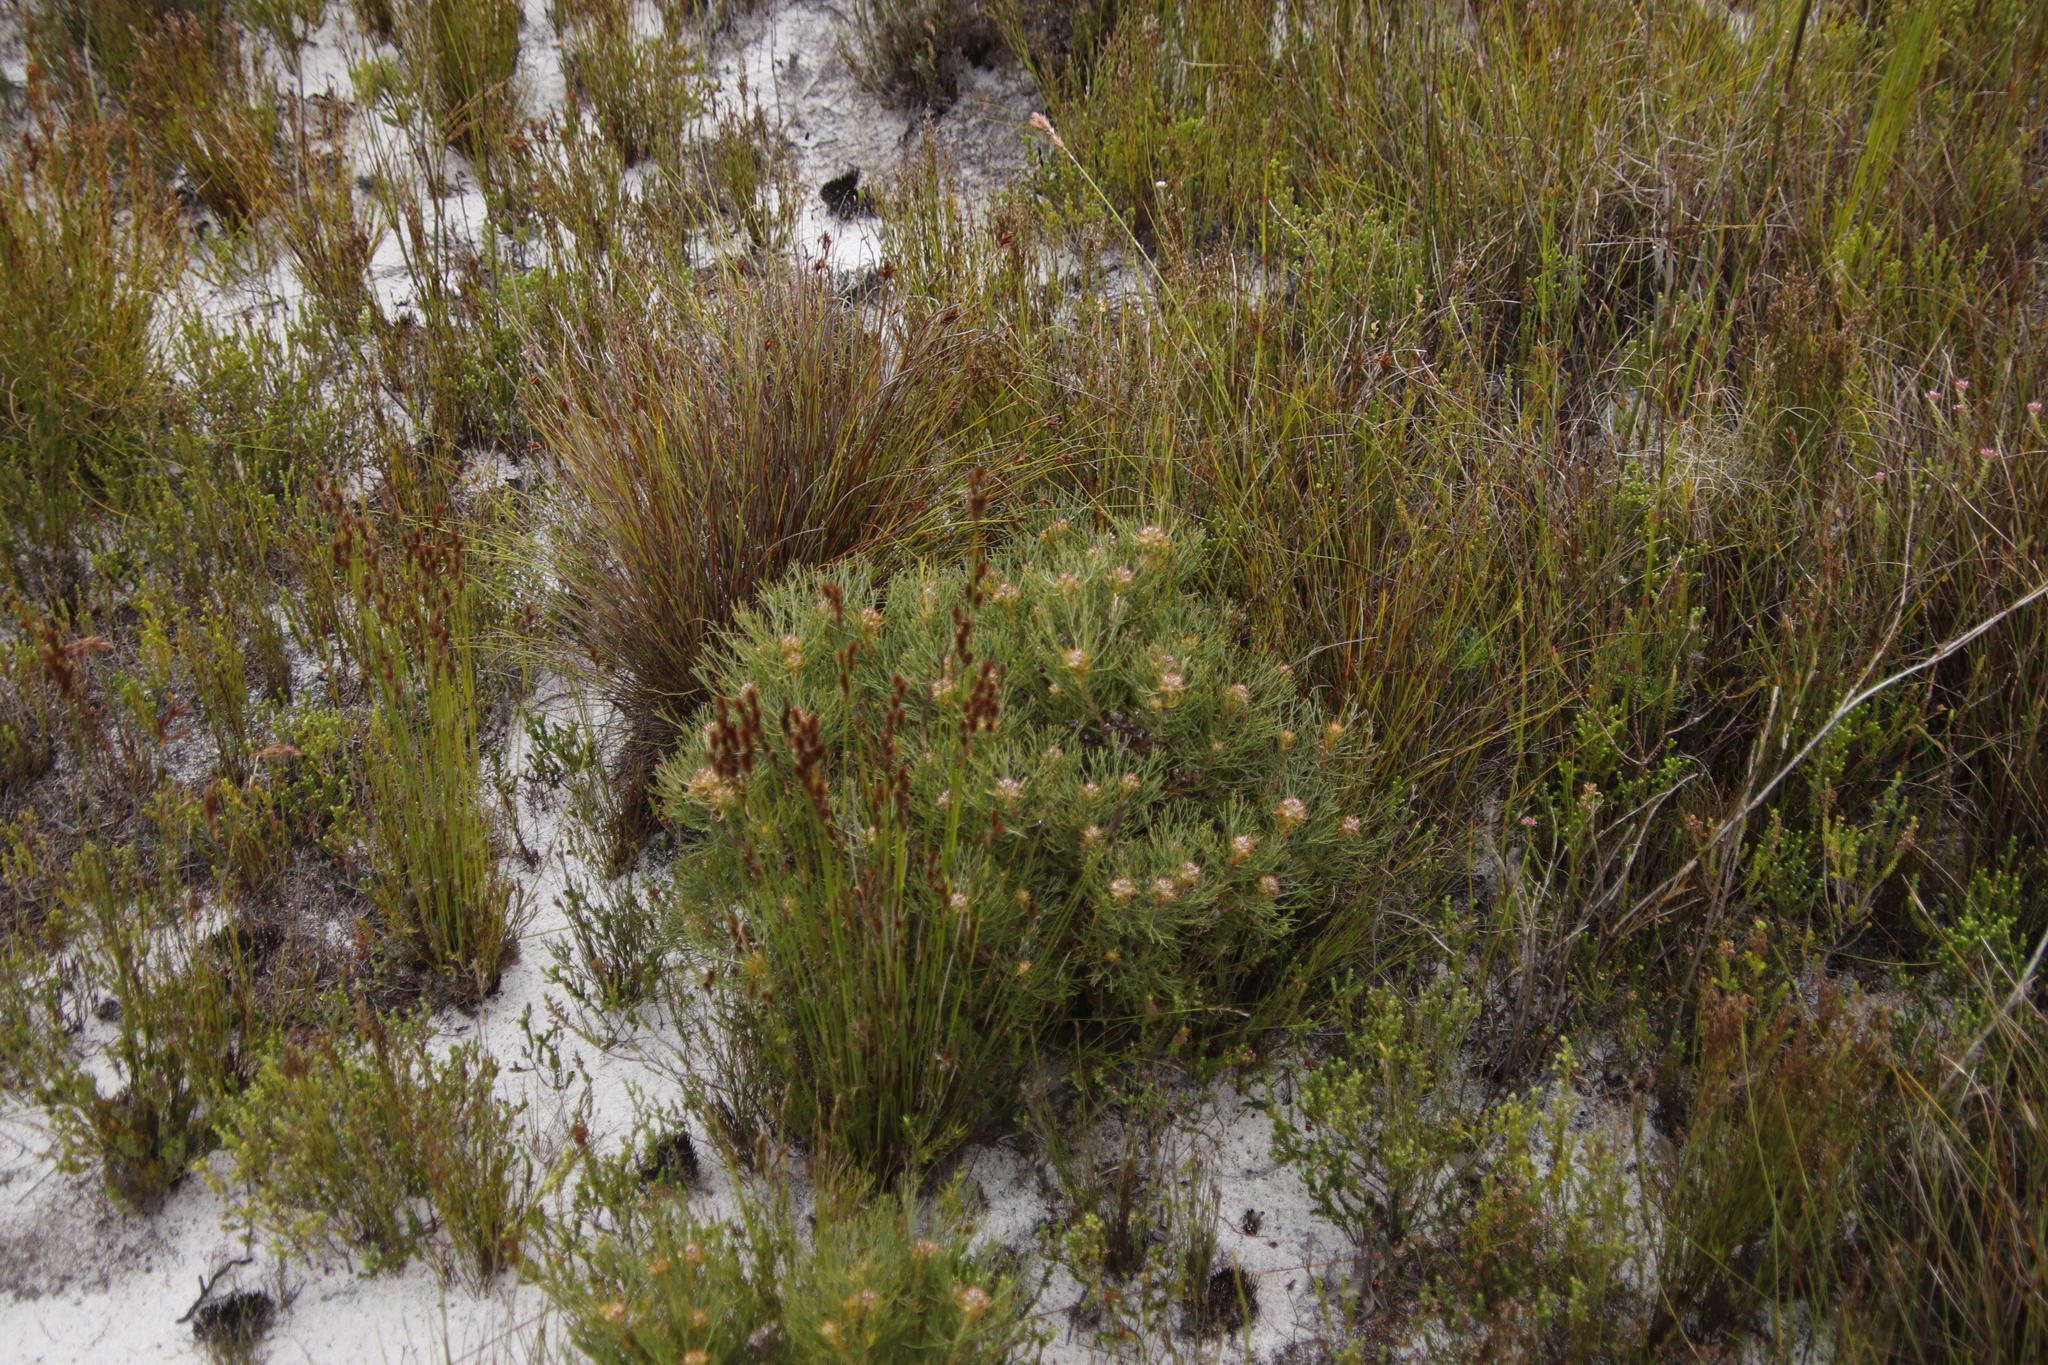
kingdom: Plantae
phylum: Tracheophyta
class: Magnoliopsida
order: Proteales
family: Proteaceae
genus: Serruria
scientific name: Serruria ascendens
